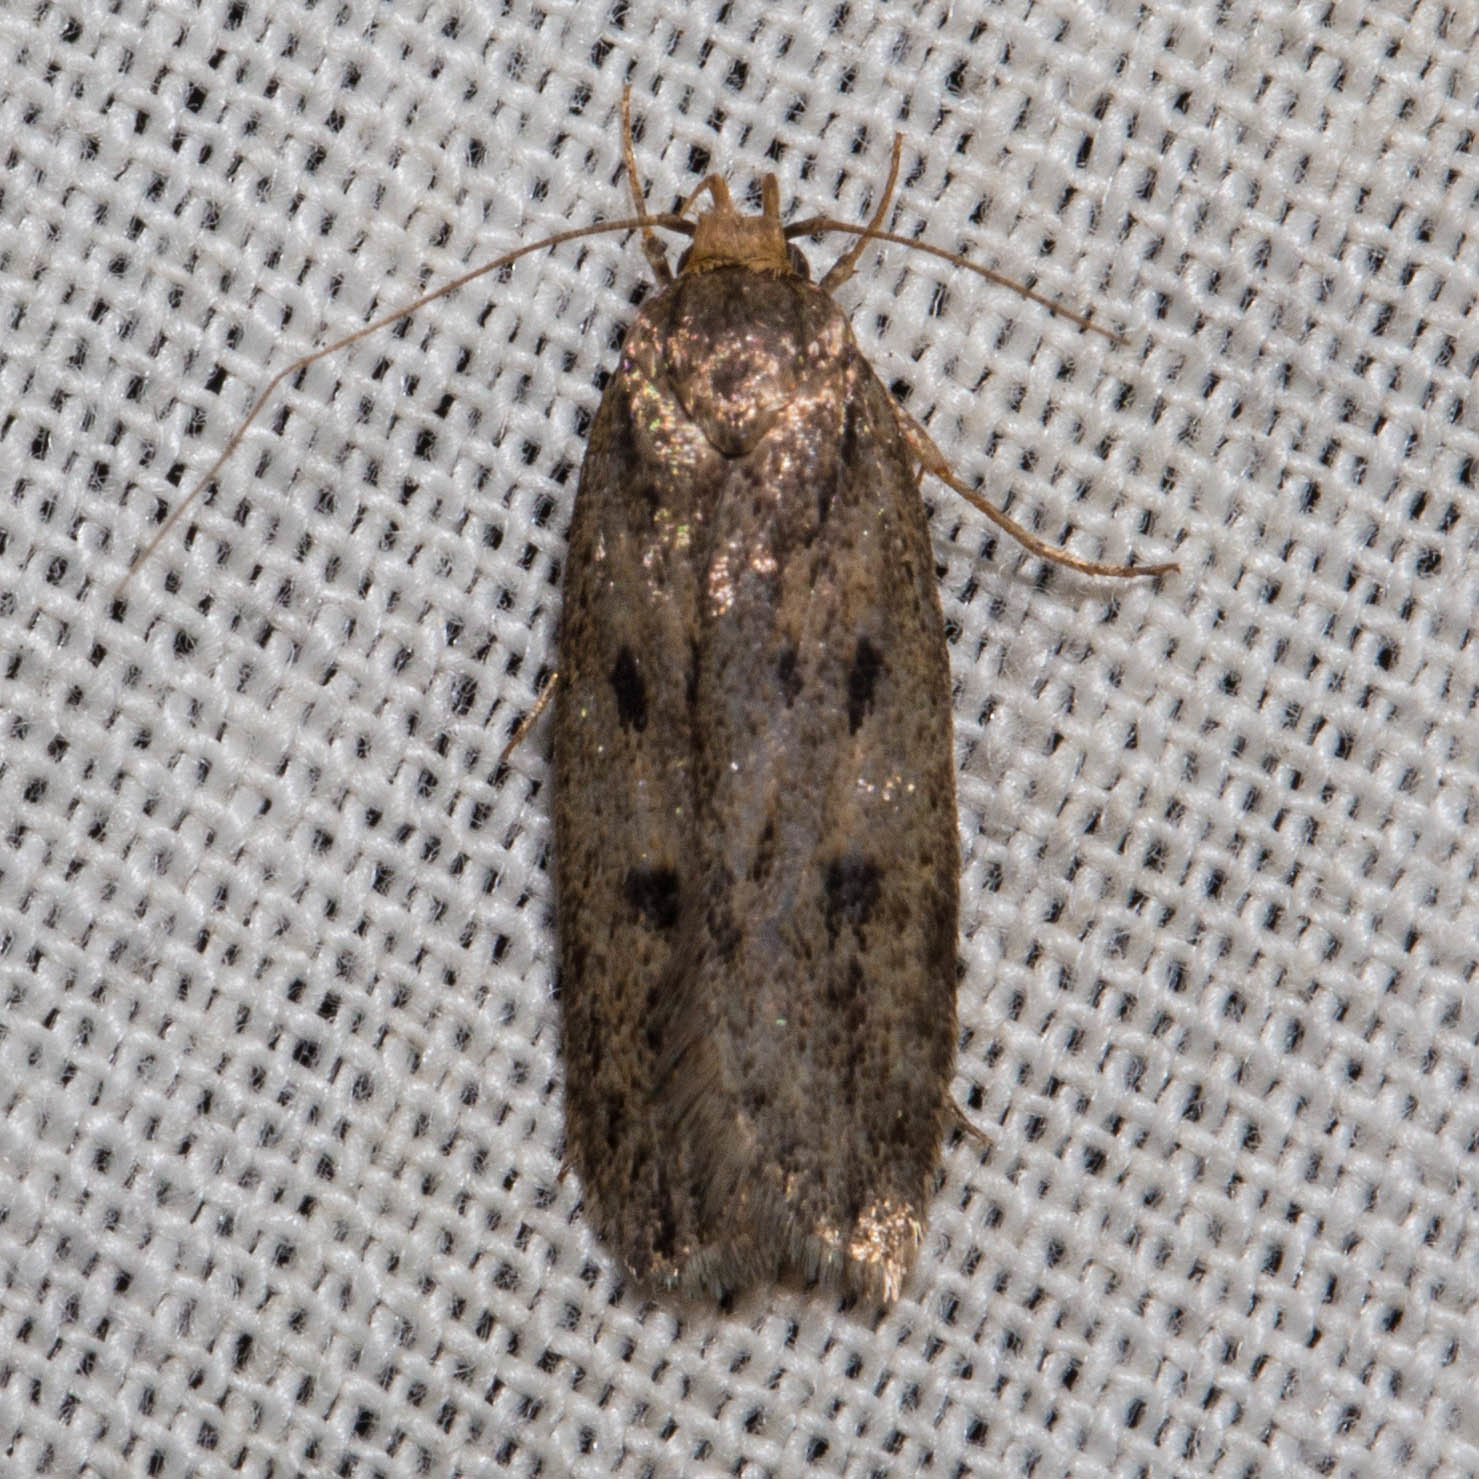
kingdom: Animalia
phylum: Arthropoda
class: Insecta
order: Lepidoptera
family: Oecophoridae
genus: Hofmannophila
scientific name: Hofmannophila pseudospretella
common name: Brown house moth
